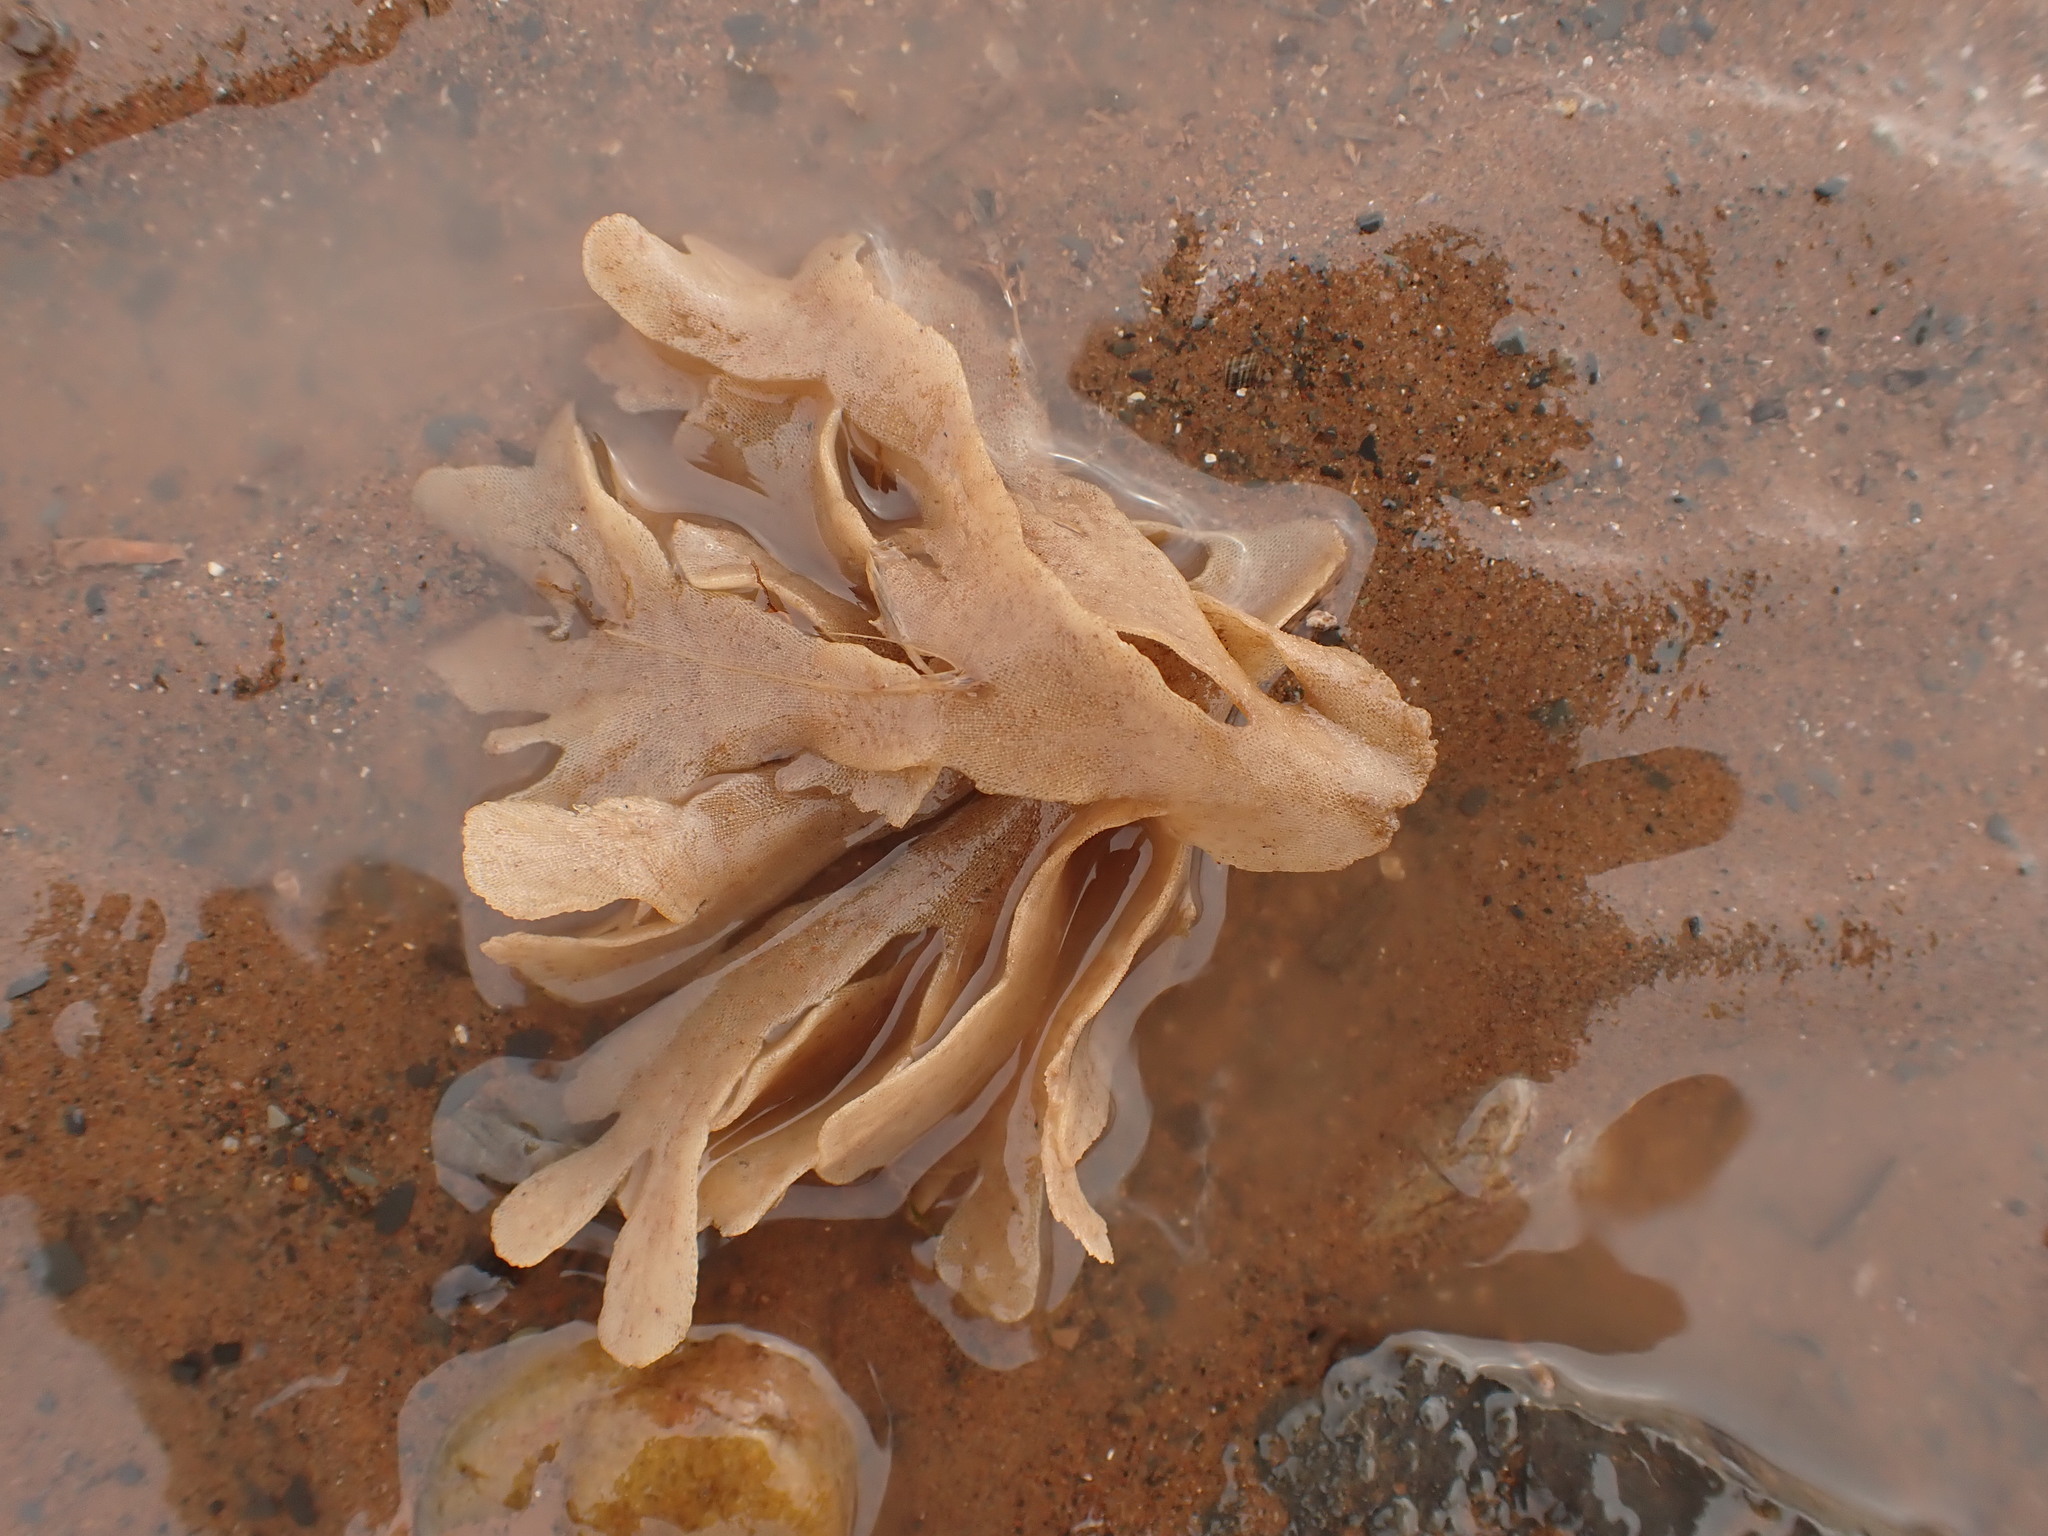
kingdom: Animalia
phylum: Bryozoa
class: Gymnolaemata
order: Cheilostomatida
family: Flustridae
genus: Flustra
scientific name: Flustra foliacea
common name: Hornwrack
